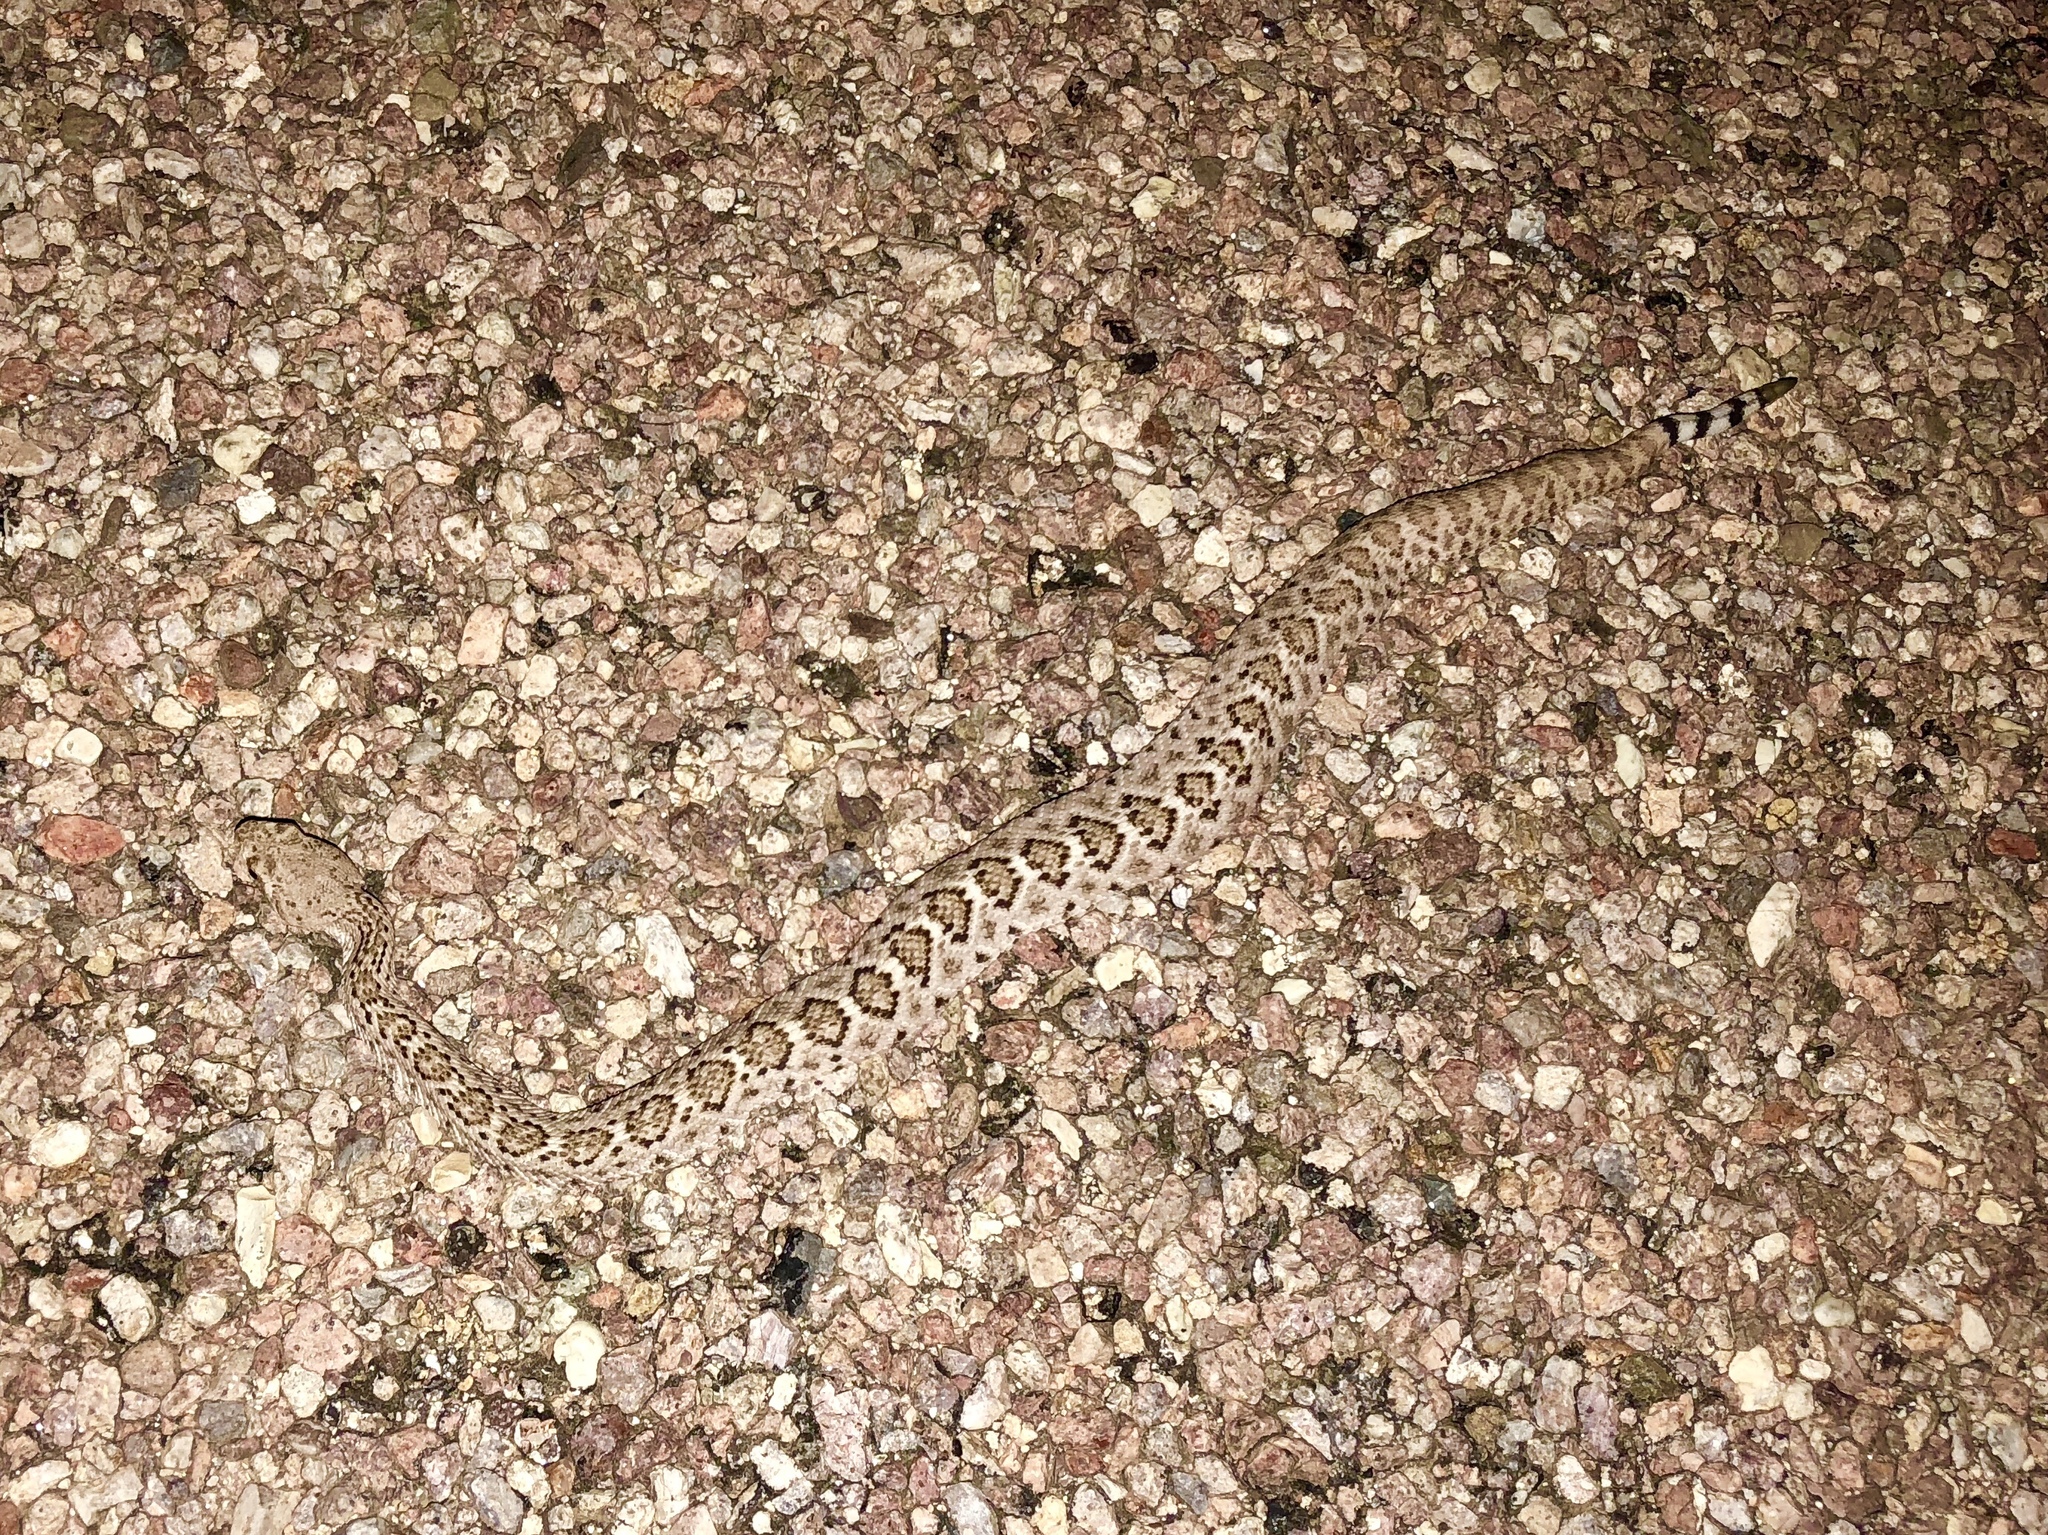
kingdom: Animalia
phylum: Chordata
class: Squamata
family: Viperidae
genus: Crotalus
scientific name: Crotalus atrox
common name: Western diamond-backed rattlesnake
